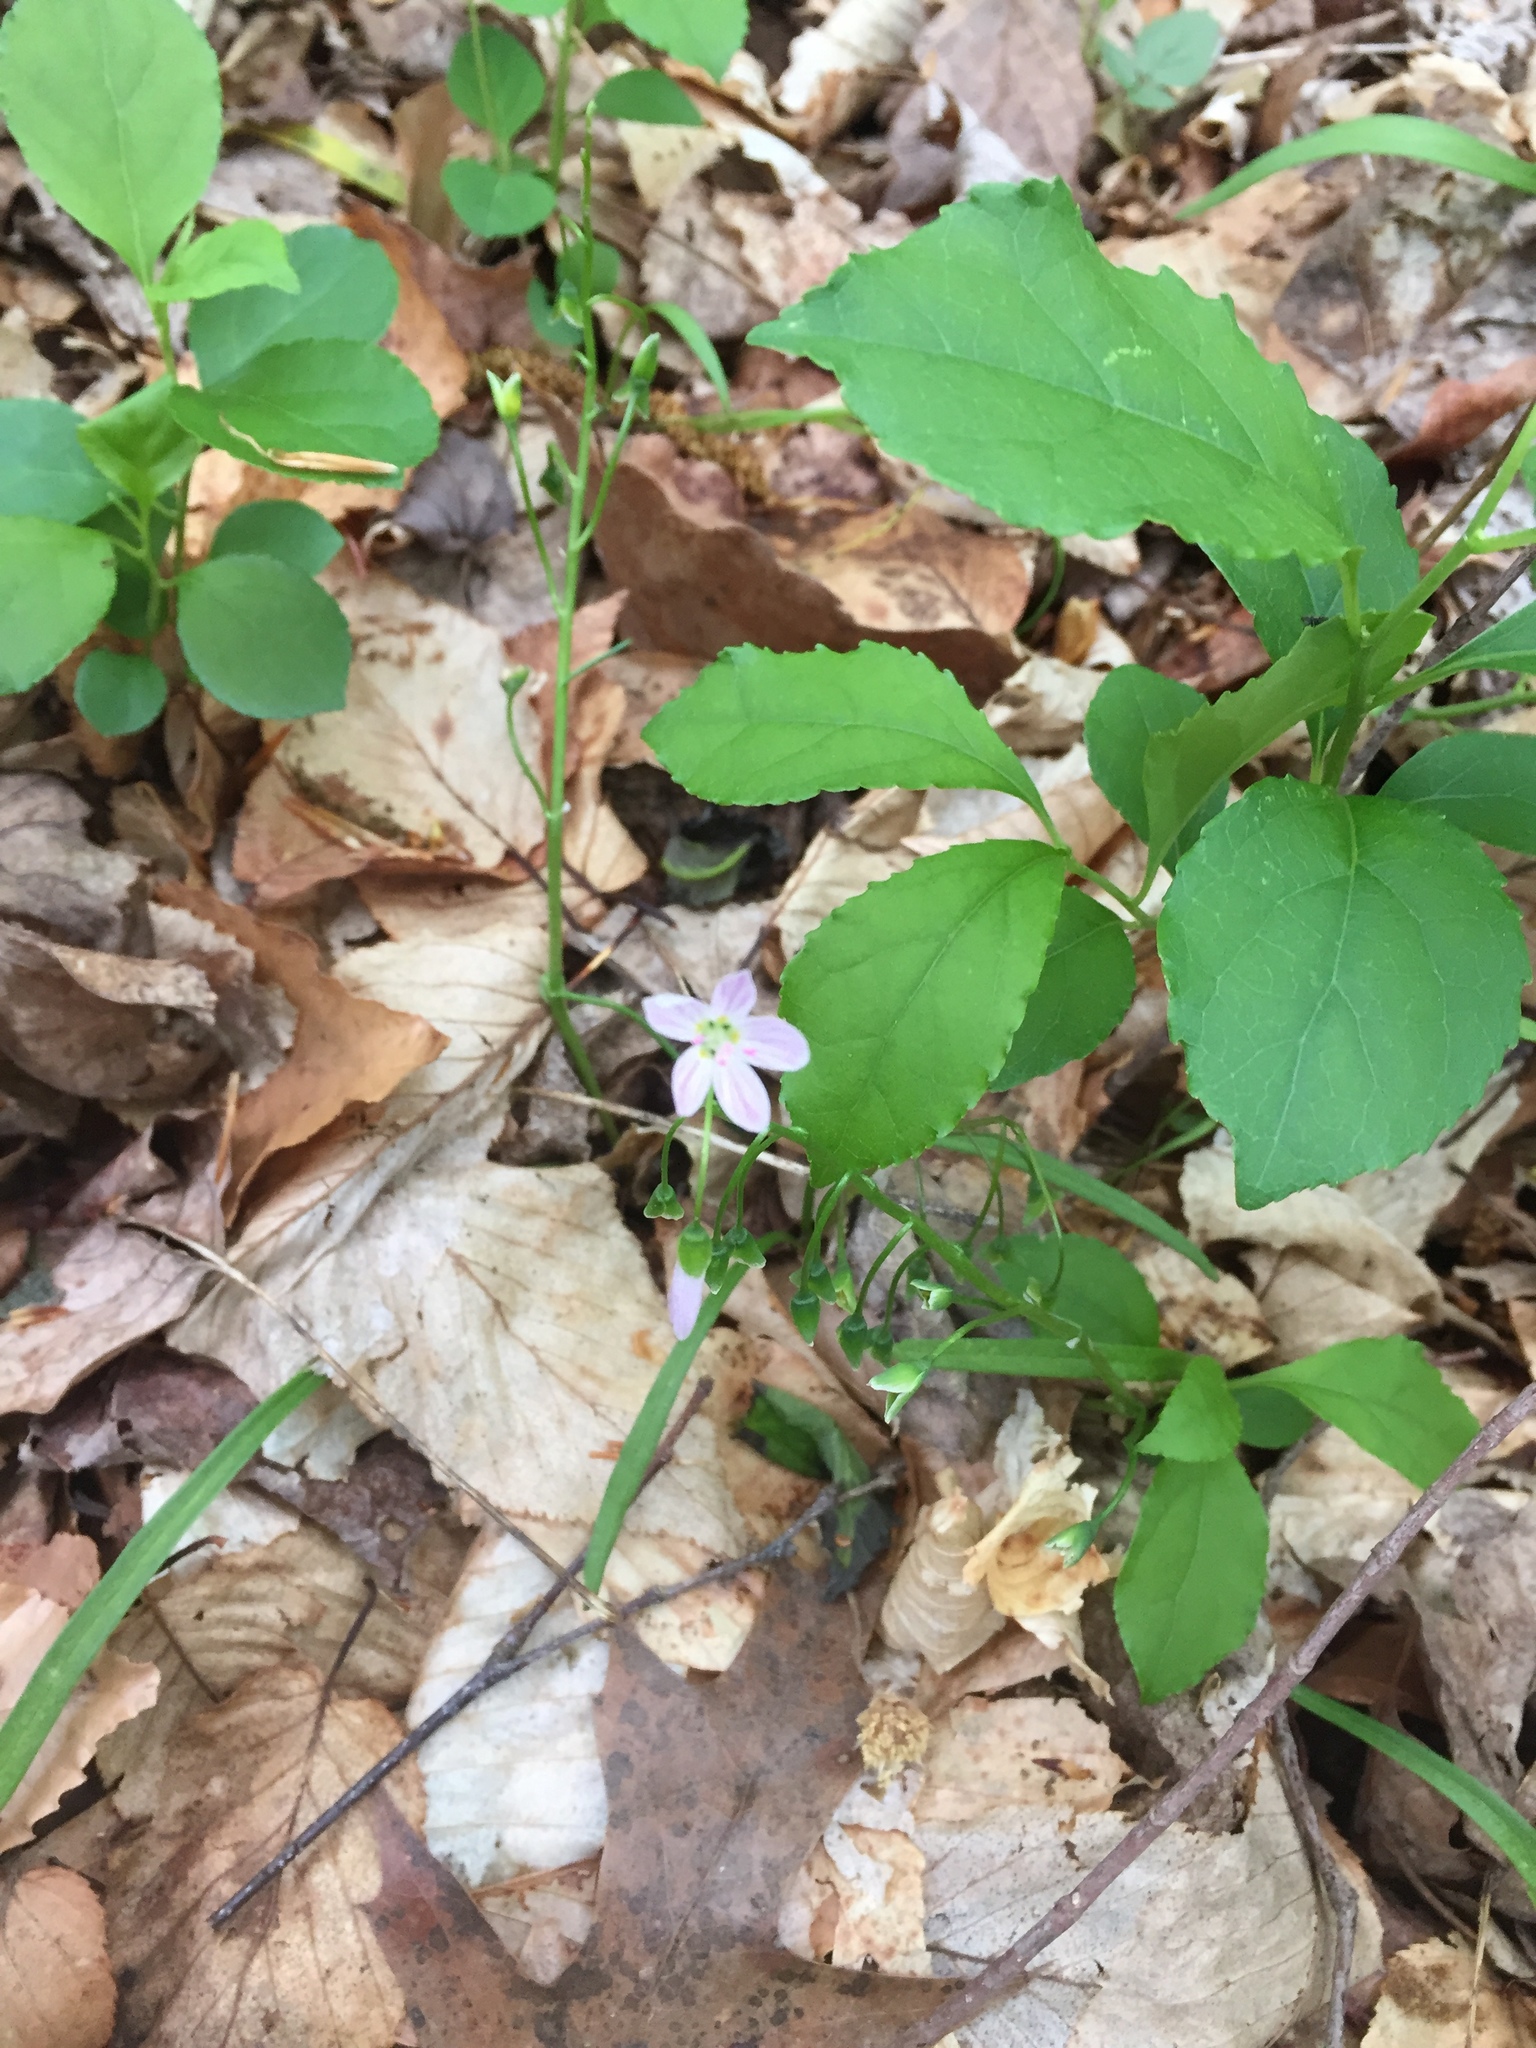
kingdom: Plantae
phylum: Tracheophyta
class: Magnoliopsida
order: Caryophyllales
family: Montiaceae
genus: Claytonia
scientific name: Claytonia virginica
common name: Virginia springbeauty
